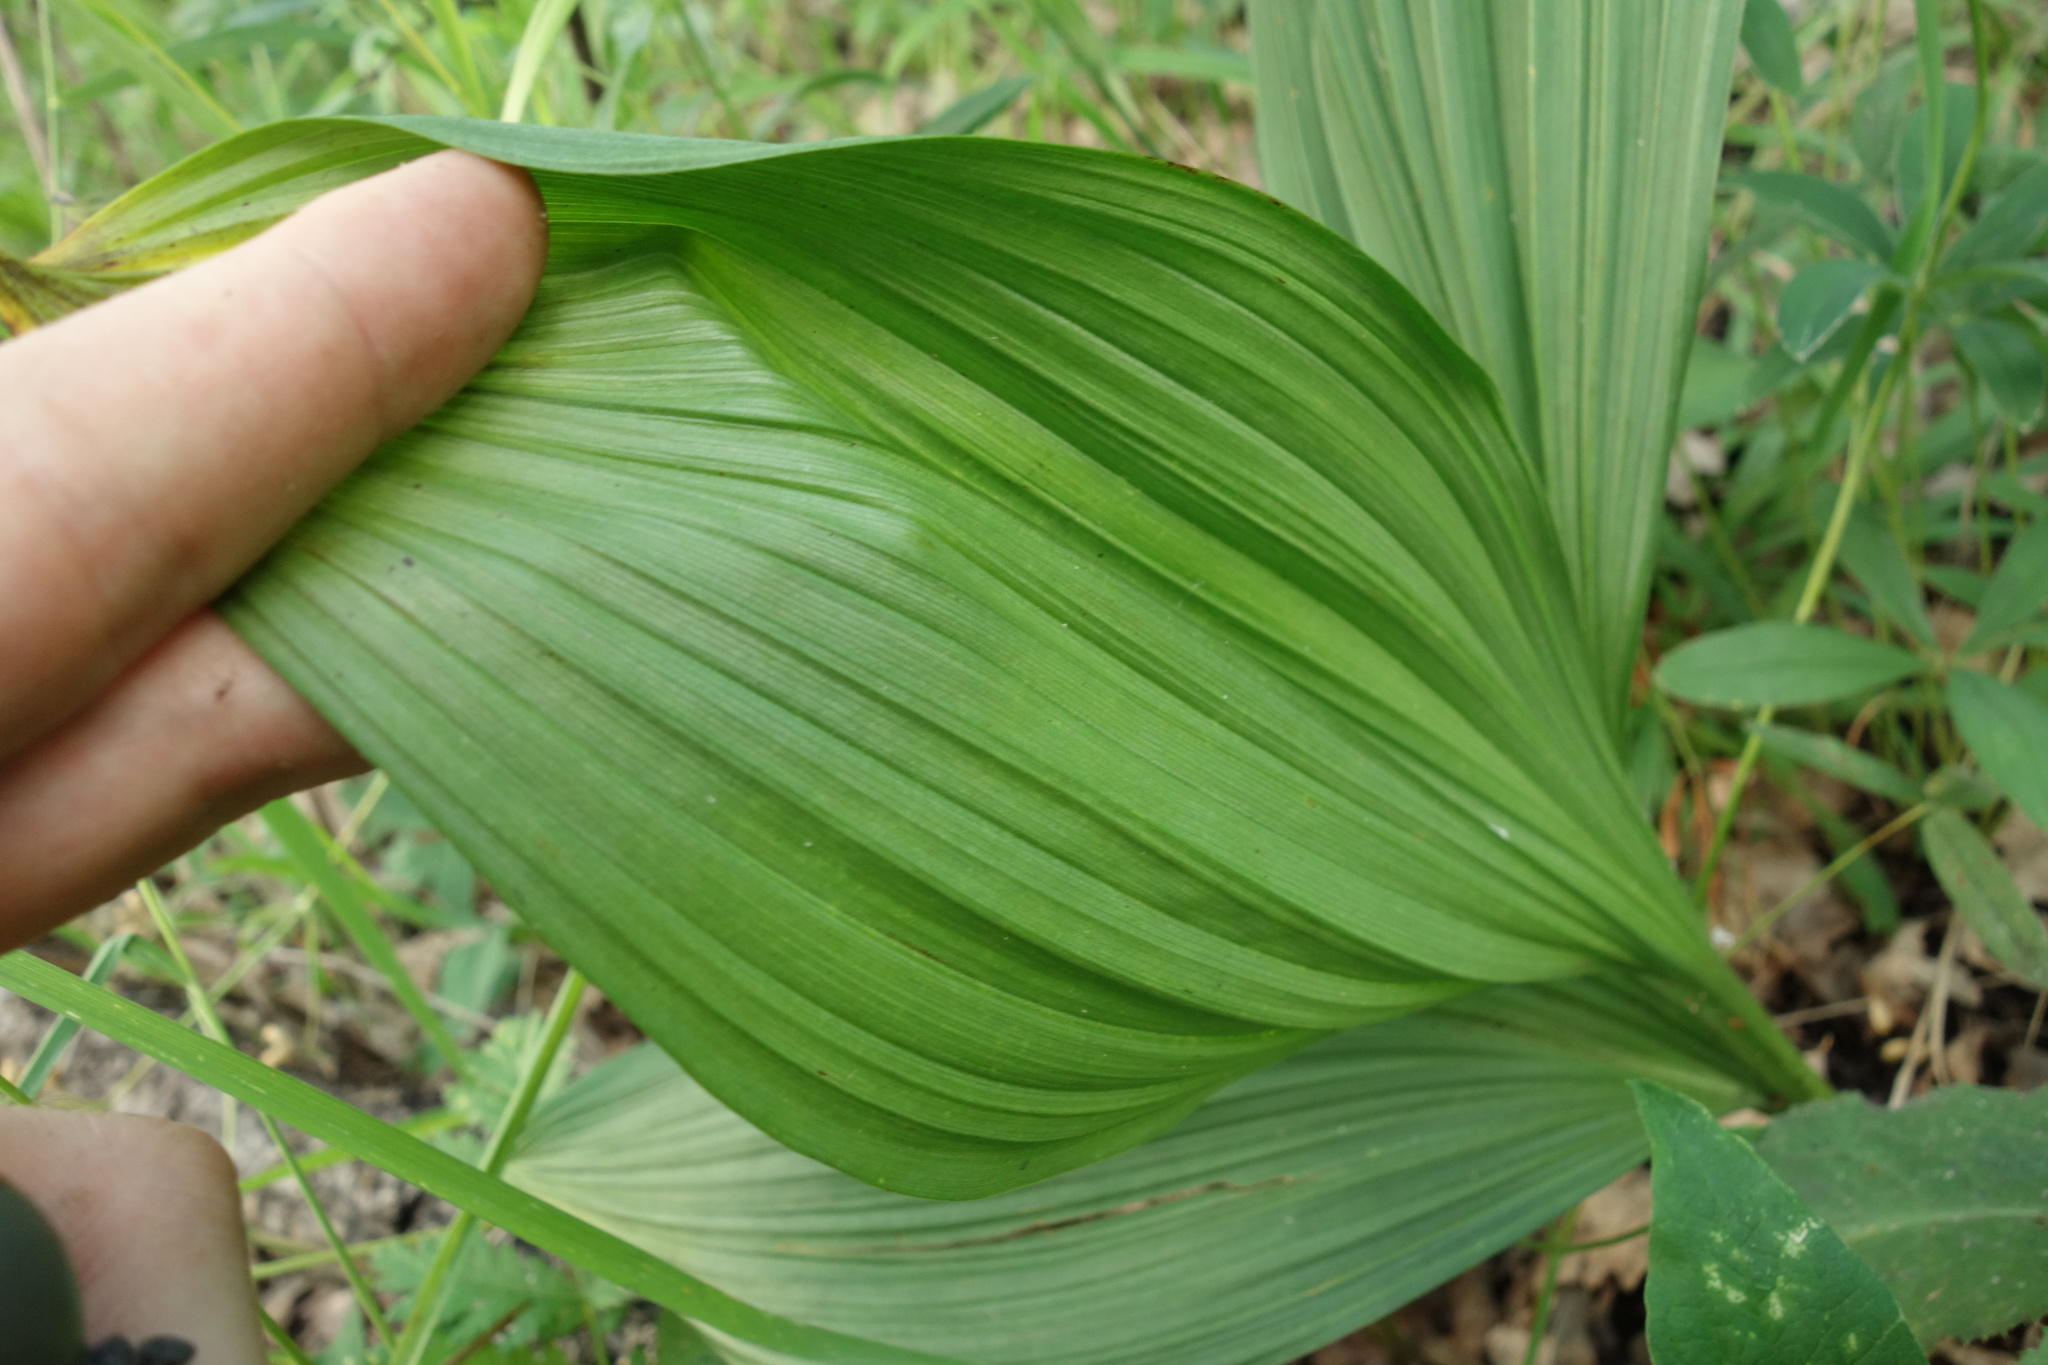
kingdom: Plantae
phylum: Tracheophyta
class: Liliopsida
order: Liliales
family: Melanthiaceae
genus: Veratrum
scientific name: Veratrum nigrum
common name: Black veratrum
